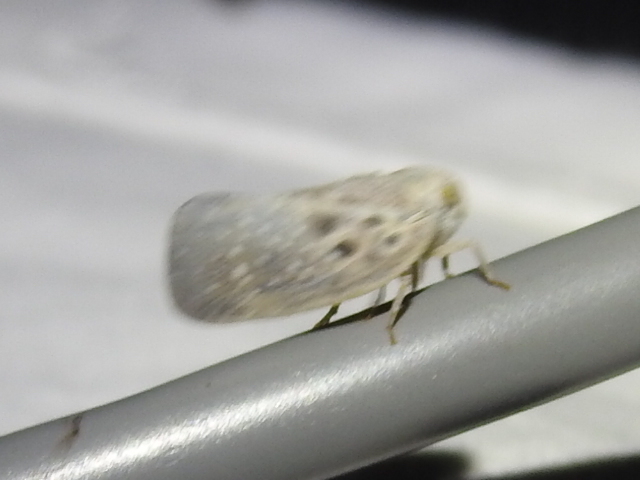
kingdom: Animalia
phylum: Arthropoda
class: Insecta
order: Hemiptera
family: Flatidae
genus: Metcalfa
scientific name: Metcalfa pruinosa
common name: Citrus flatid planthopper
